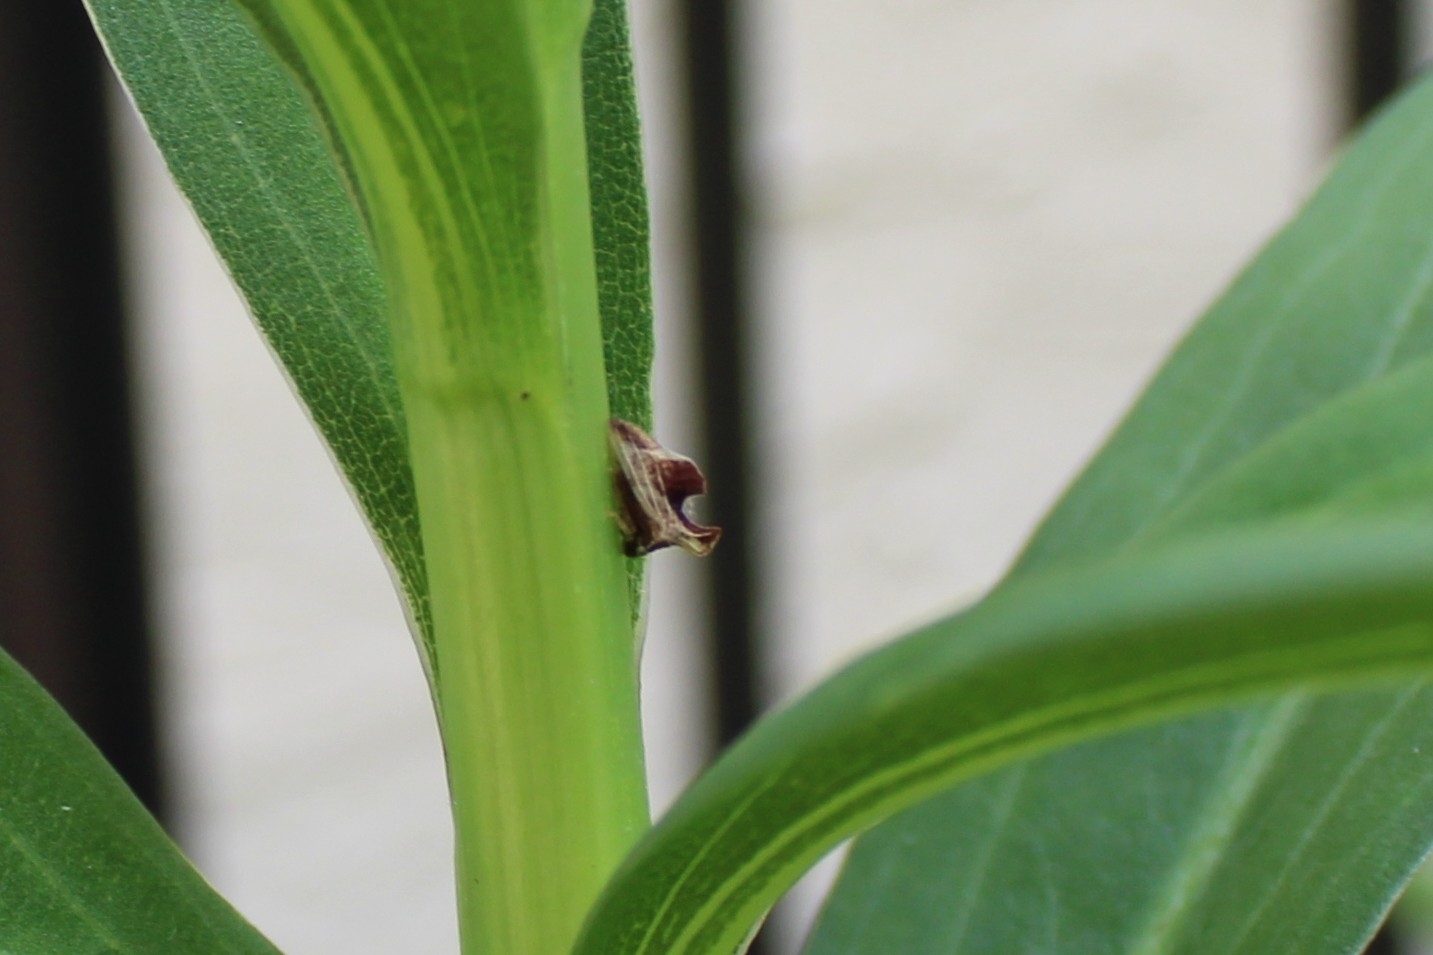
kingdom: Animalia
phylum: Arthropoda
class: Insecta
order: Hemiptera
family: Membracidae
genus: Entylia
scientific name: Entylia carinata
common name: Keeled treehopper
